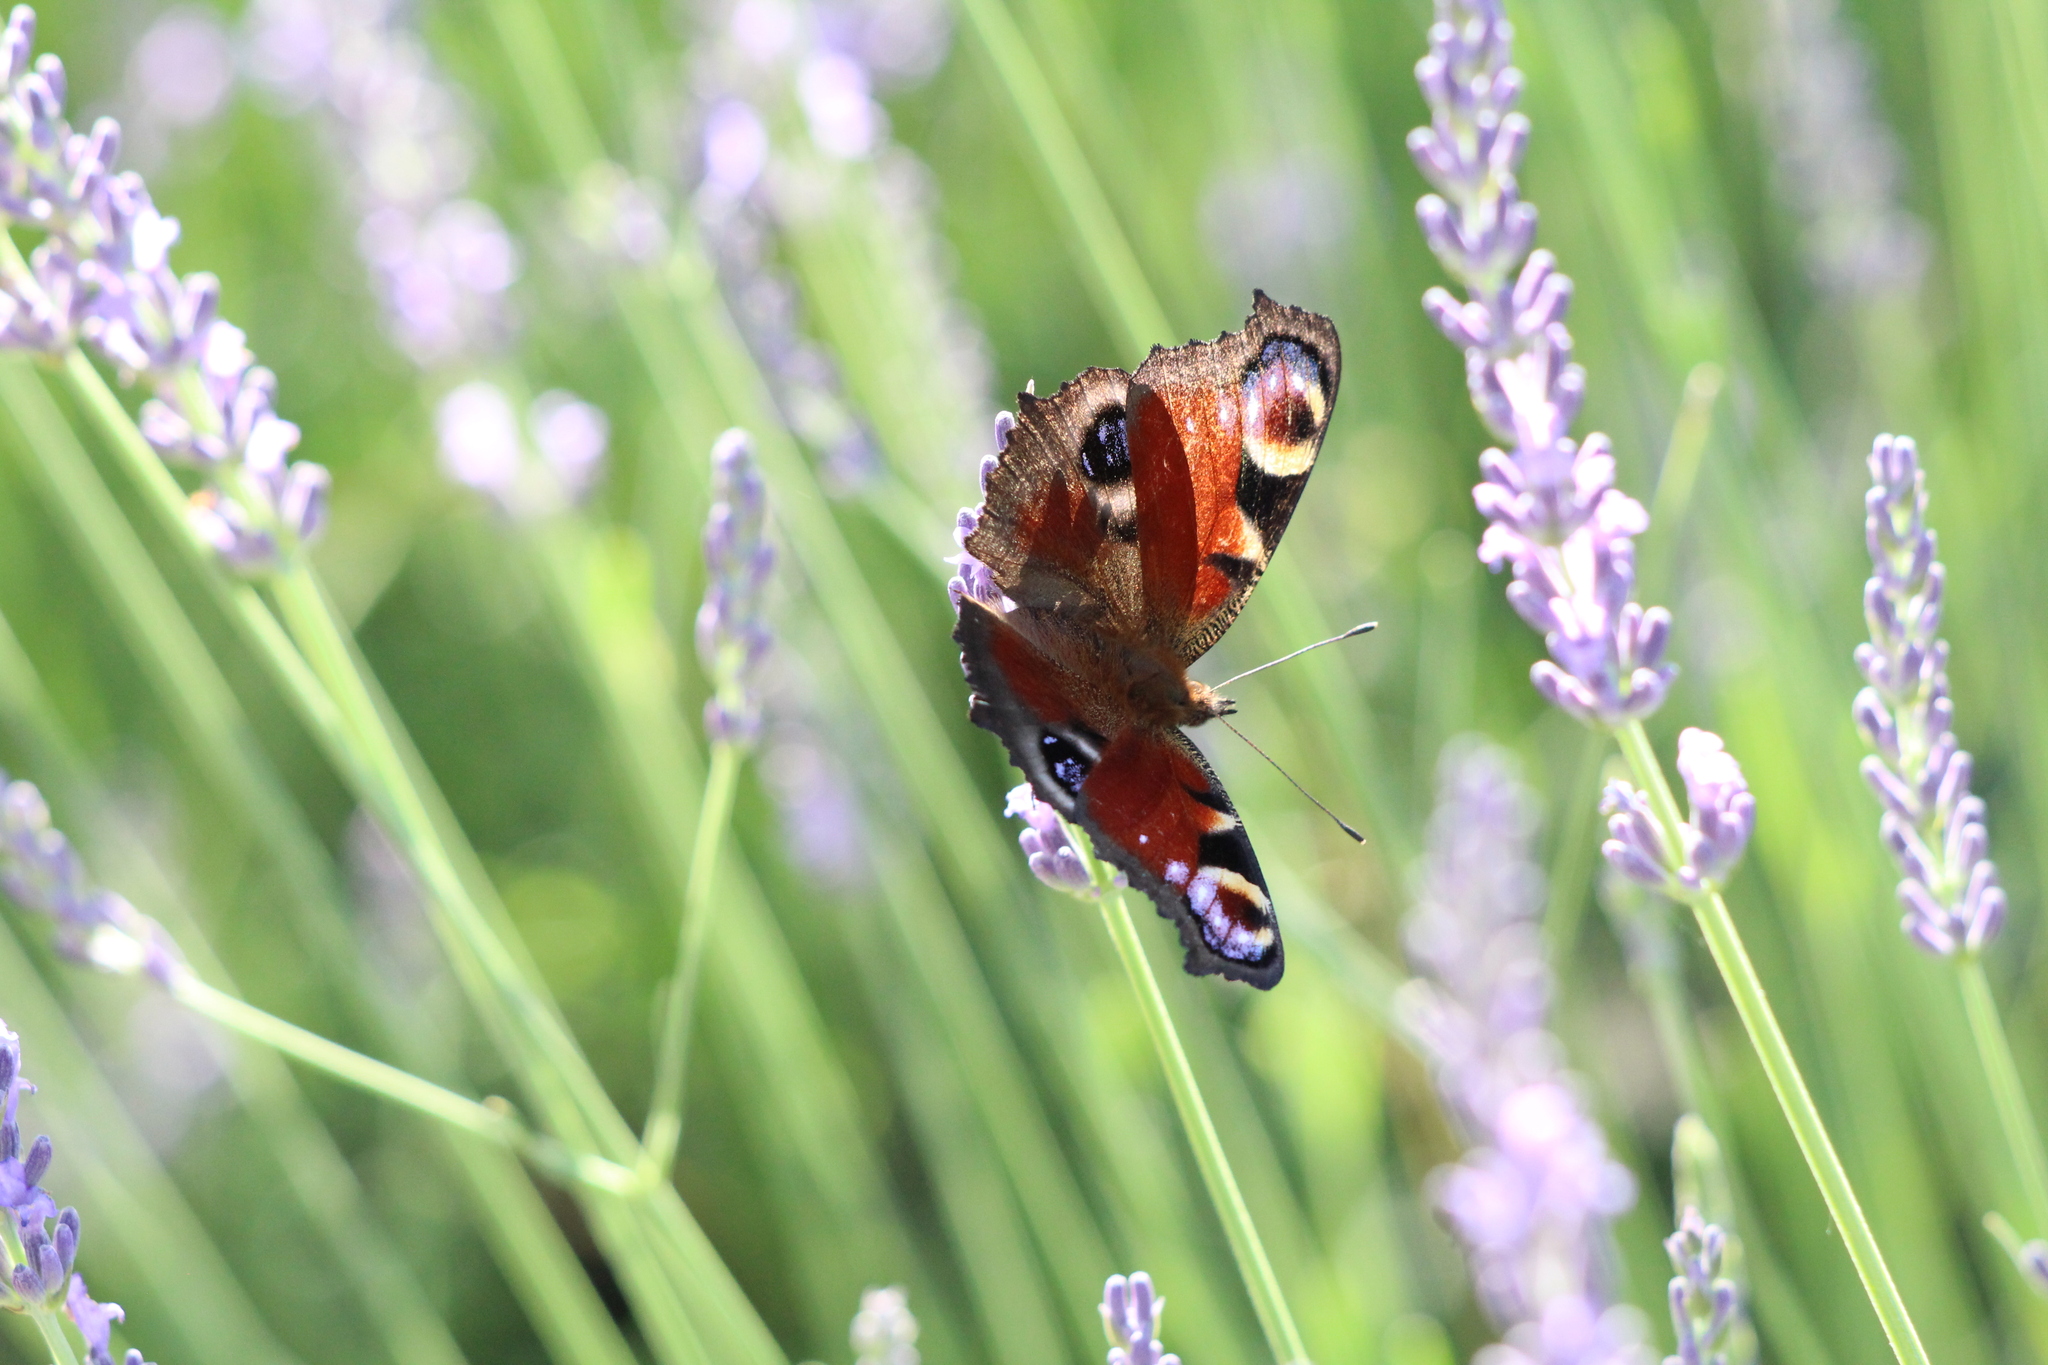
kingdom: Animalia
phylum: Arthropoda
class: Insecta
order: Lepidoptera
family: Nymphalidae
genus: Aglais
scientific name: Aglais io
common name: Peacock
